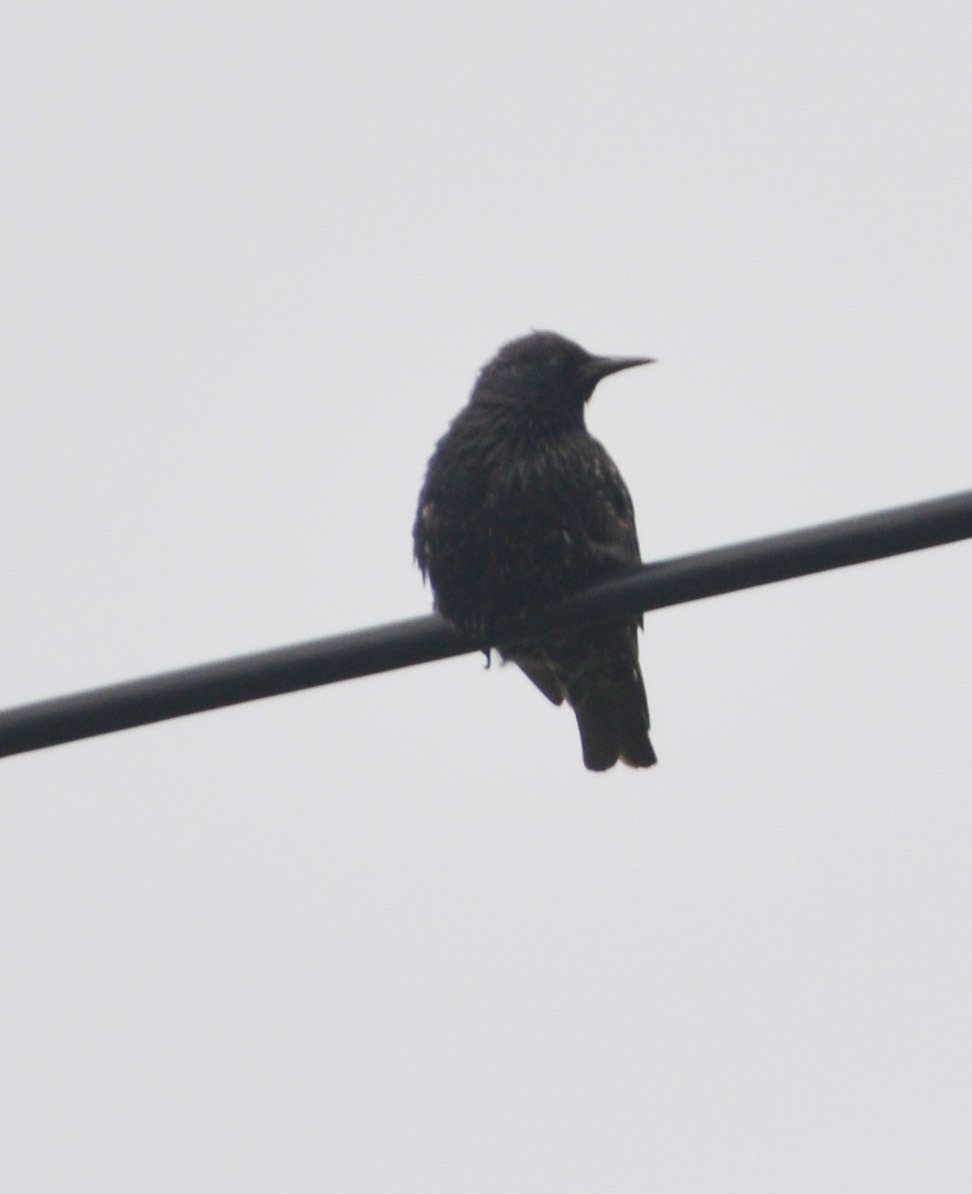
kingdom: Animalia
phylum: Chordata
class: Aves
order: Passeriformes
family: Sturnidae
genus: Sturnus
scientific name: Sturnus vulgaris
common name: Common starling
